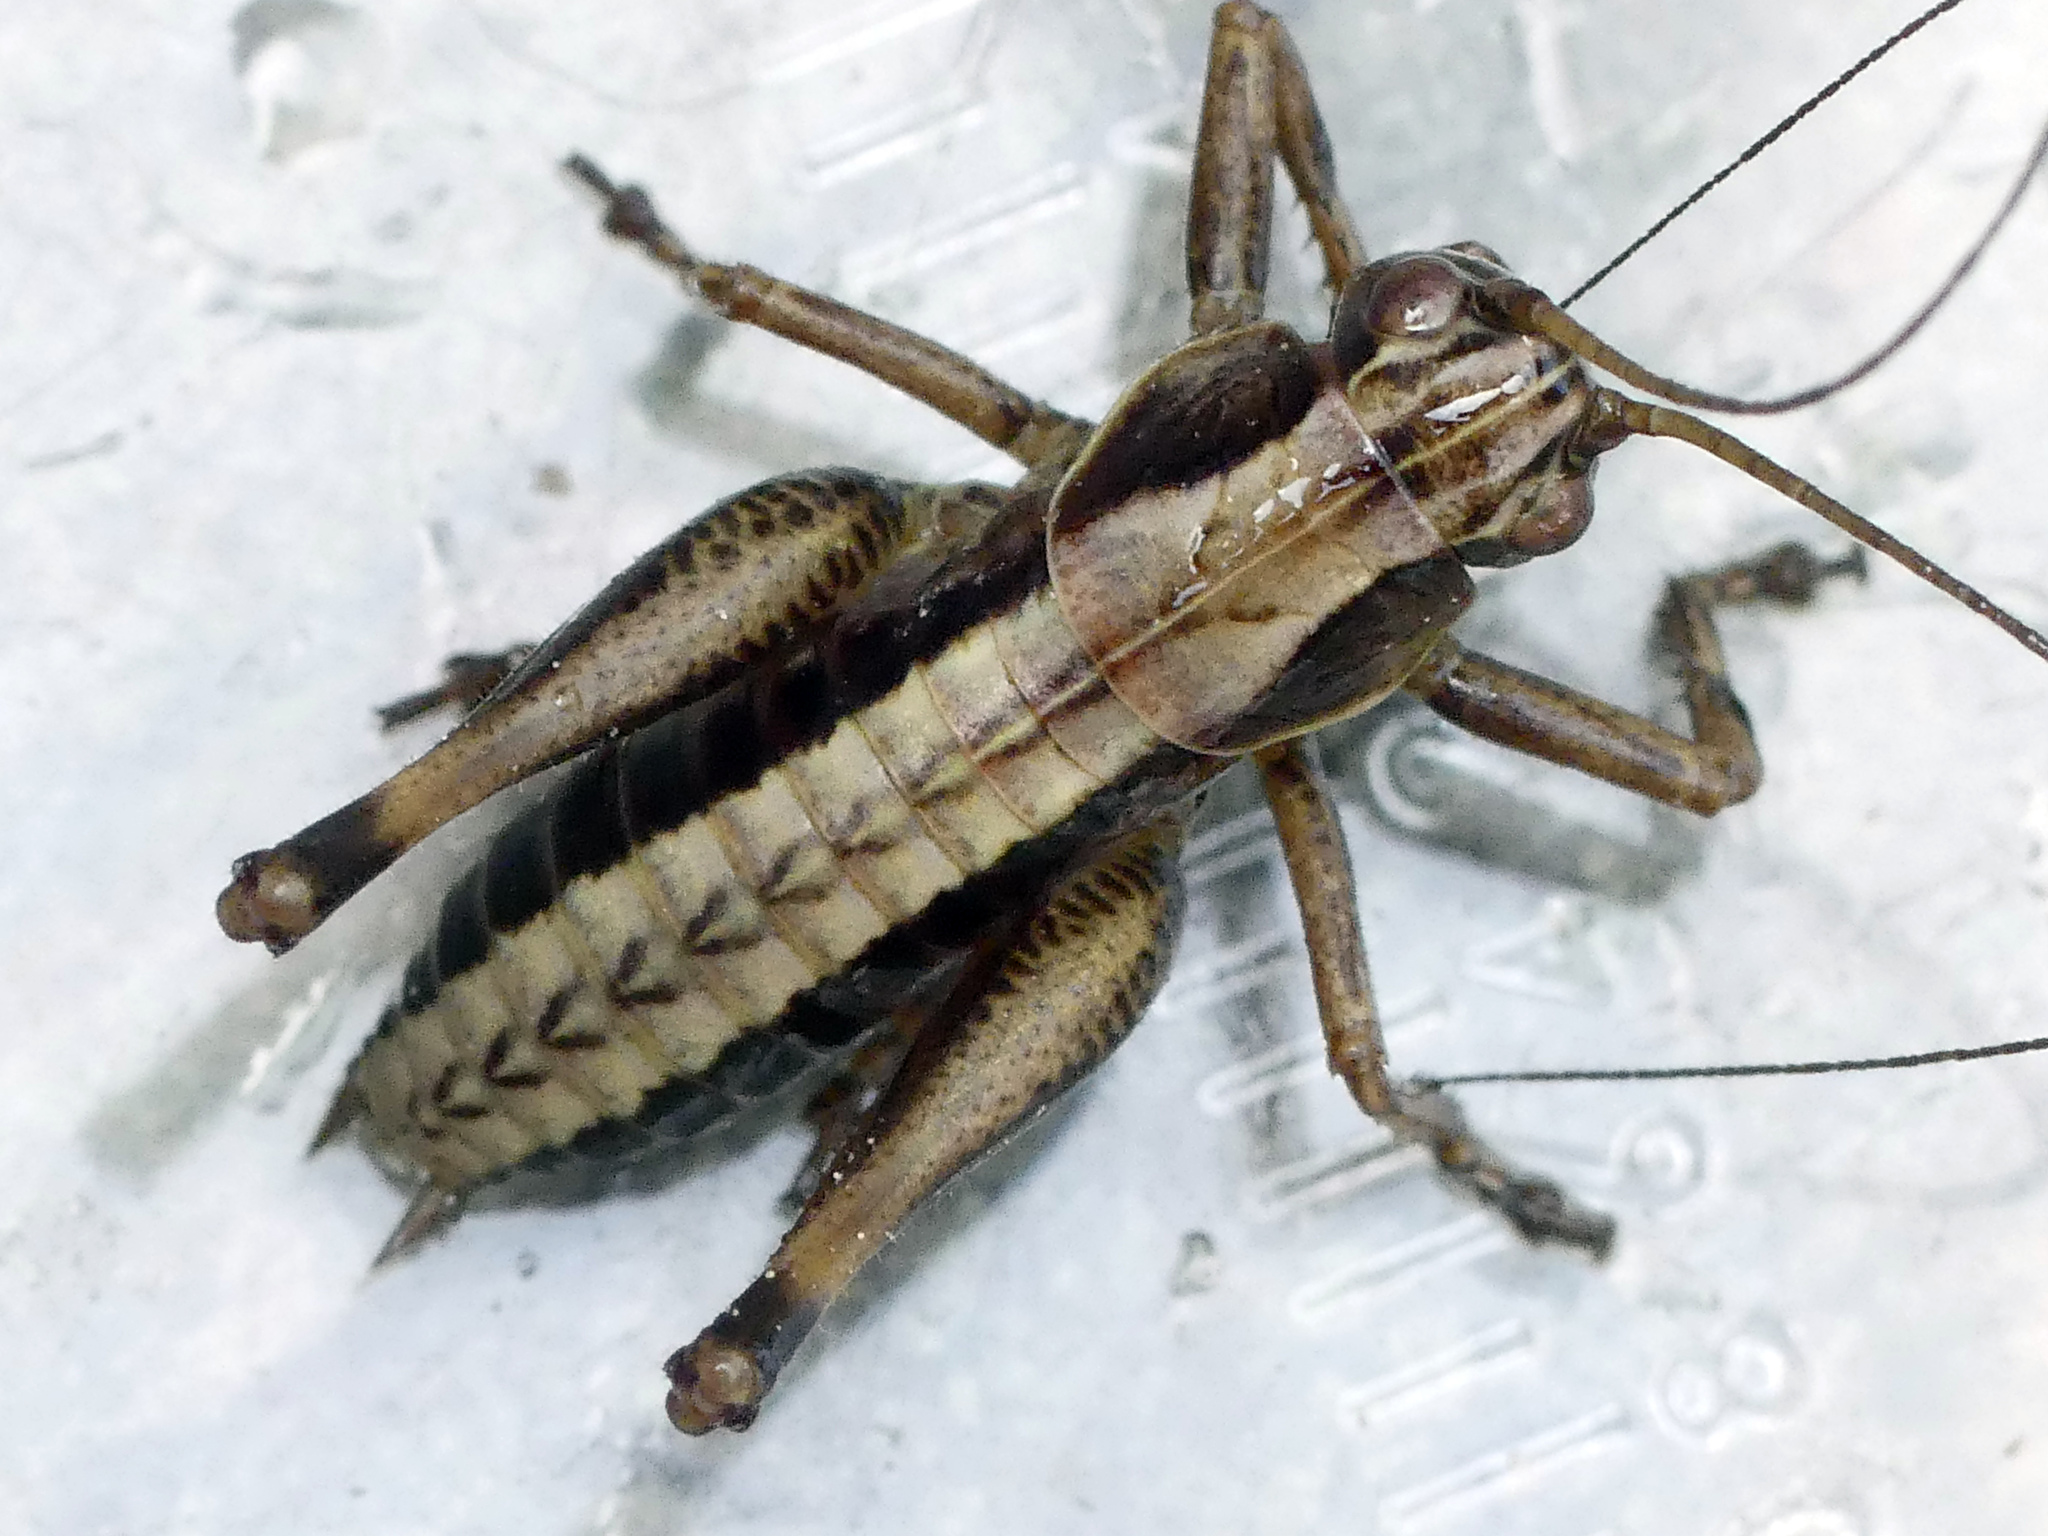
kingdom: Animalia
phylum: Arthropoda
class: Insecta
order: Orthoptera
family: Tettigoniidae
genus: Pholidoptera
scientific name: Pholidoptera griseoaptera
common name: Dark bush-cricket
